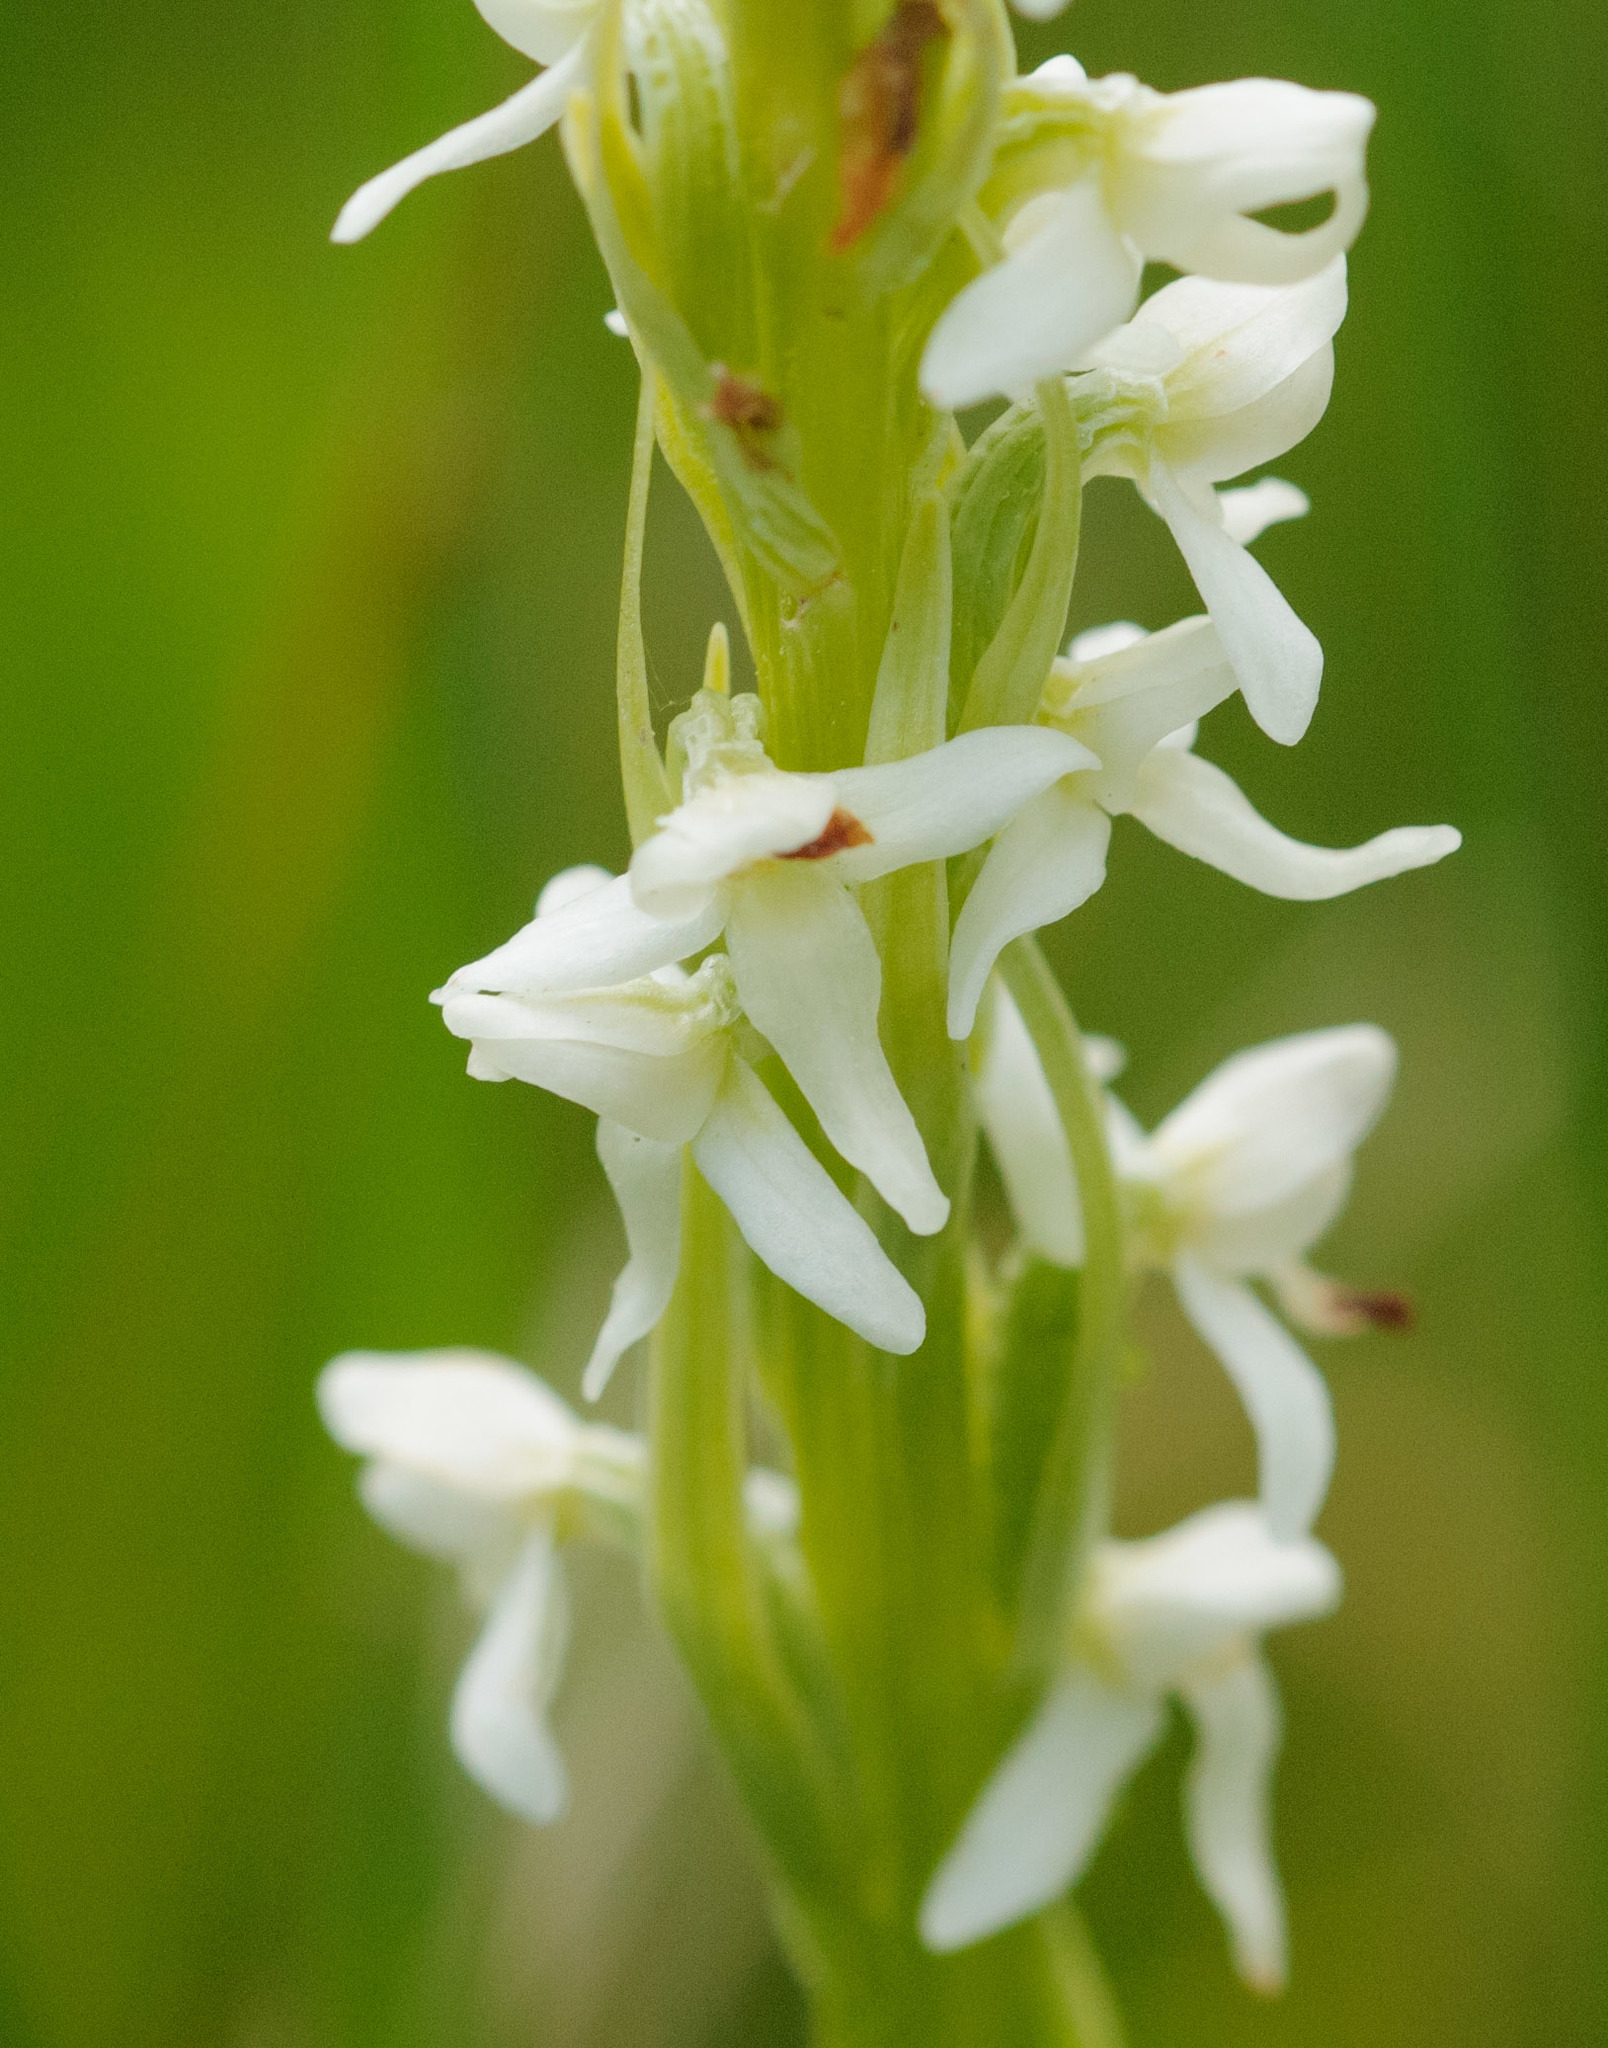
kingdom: Plantae
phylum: Tracheophyta
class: Liliopsida
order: Asparagales
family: Orchidaceae
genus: Platanthera
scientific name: Platanthera dilatata
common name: Bog candles
